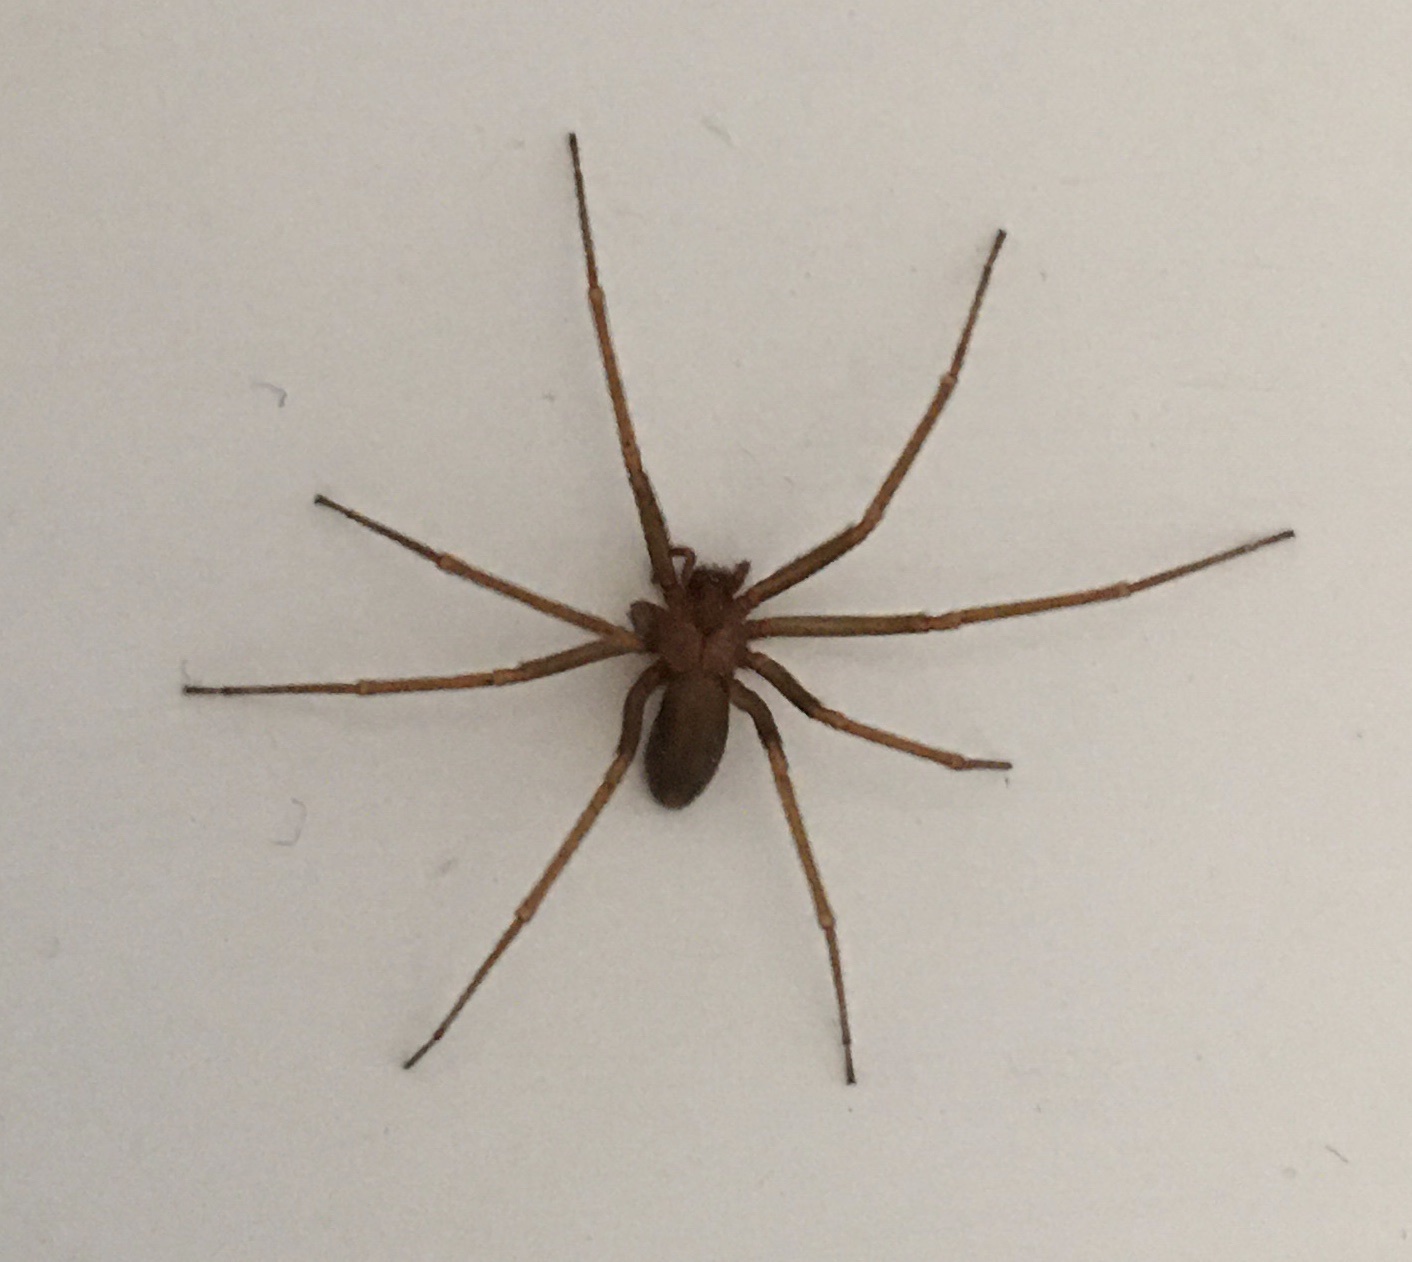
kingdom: Animalia
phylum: Arthropoda
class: Arachnida
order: Araneae
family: Sicariidae
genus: Loxosceles
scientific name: Loxosceles reclusa
